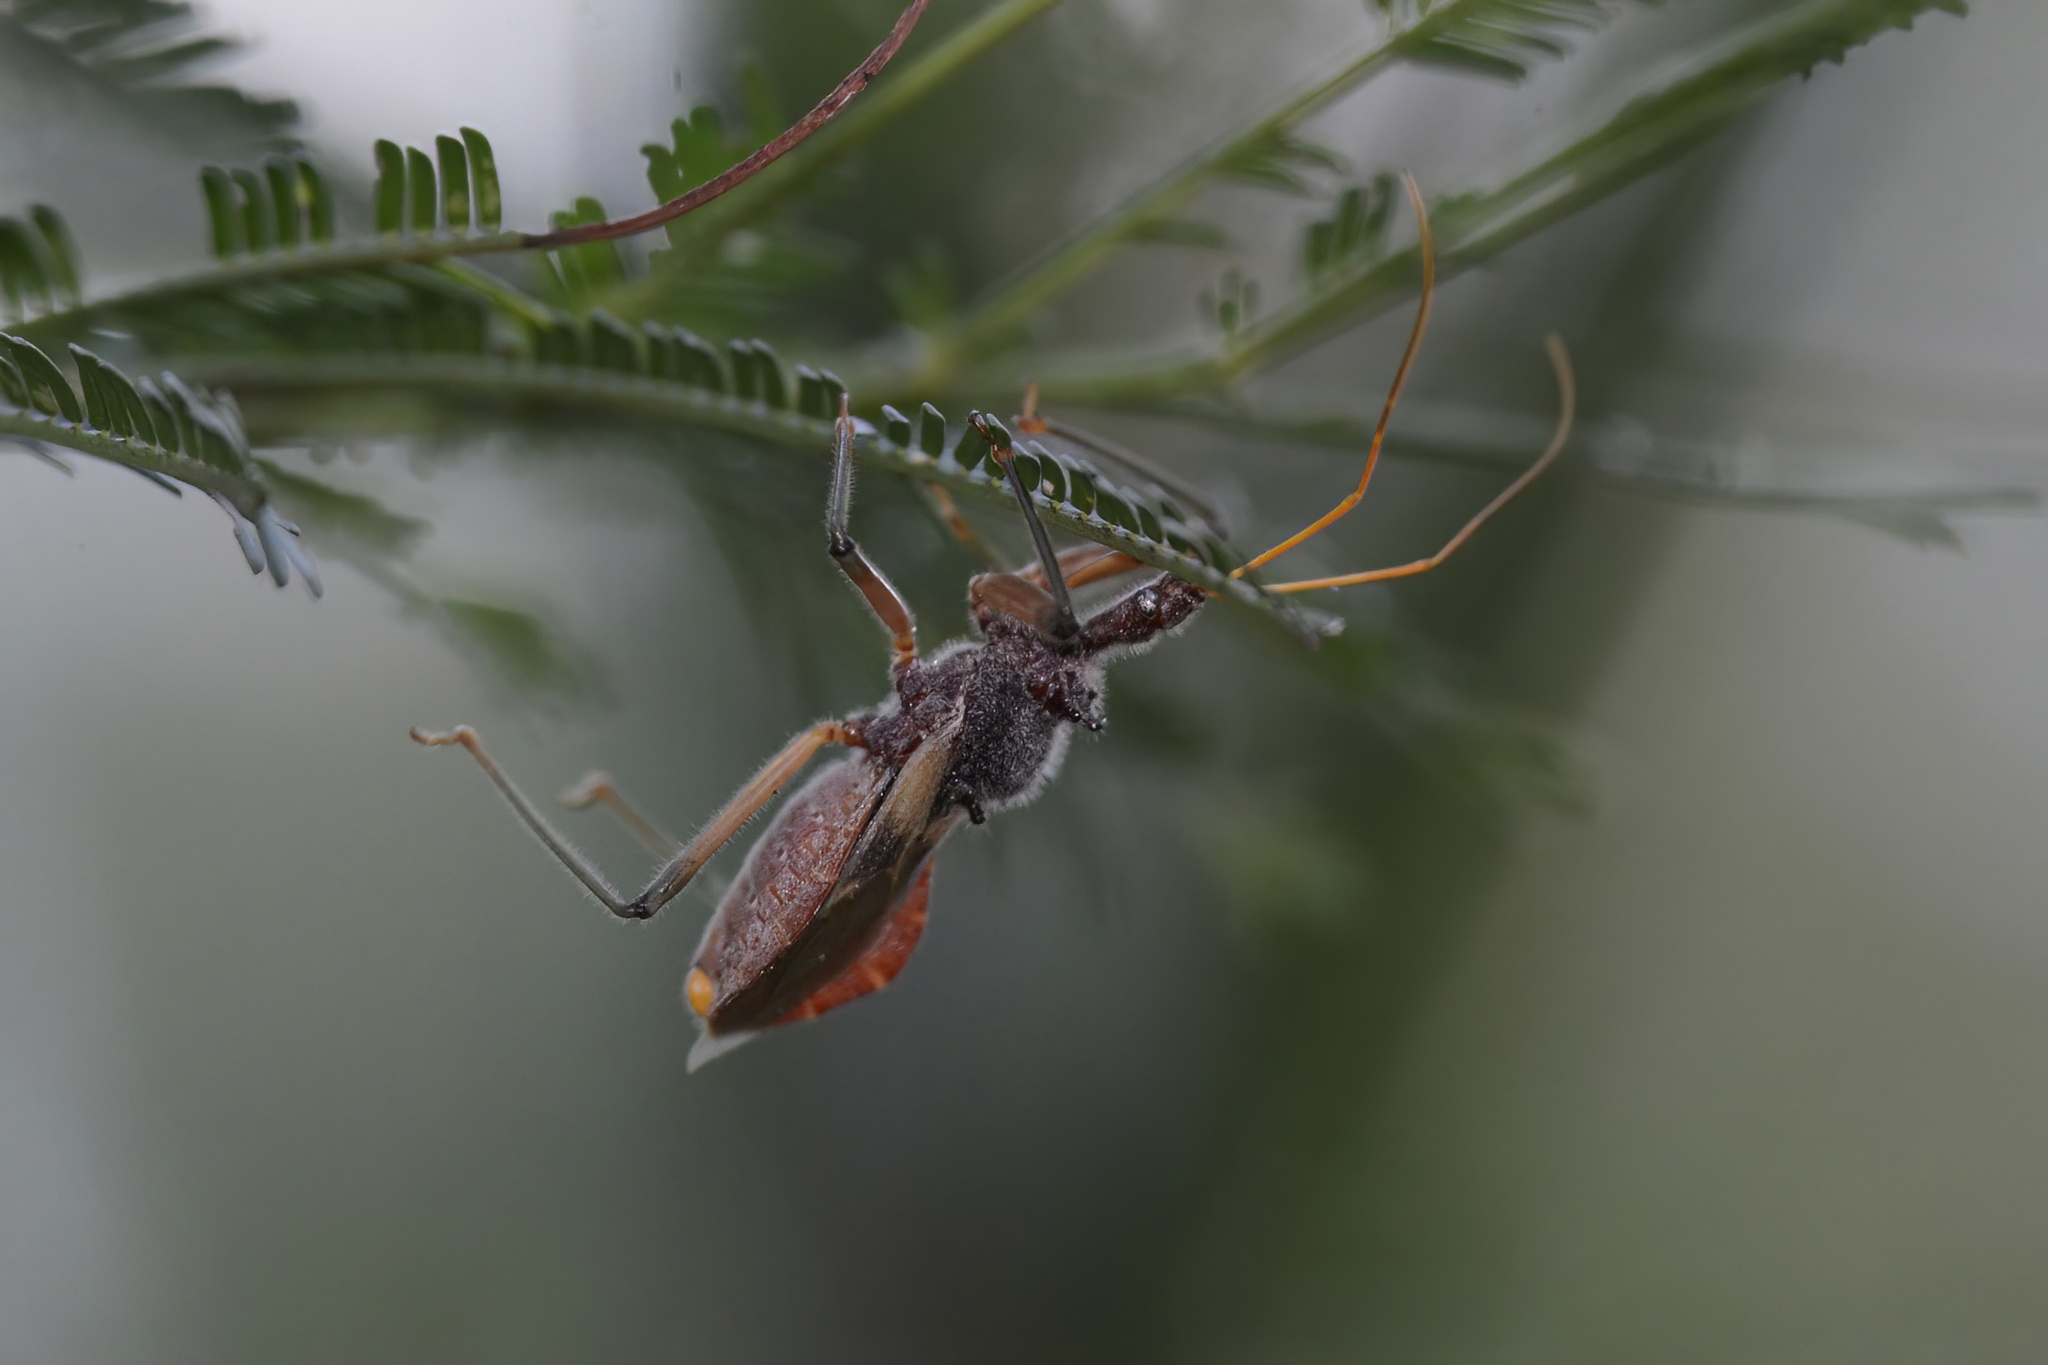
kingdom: Animalia
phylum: Arthropoda
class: Insecta
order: Hemiptera
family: Reduviidae
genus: Pristhesancus
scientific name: Pristhesancus plagipennis
